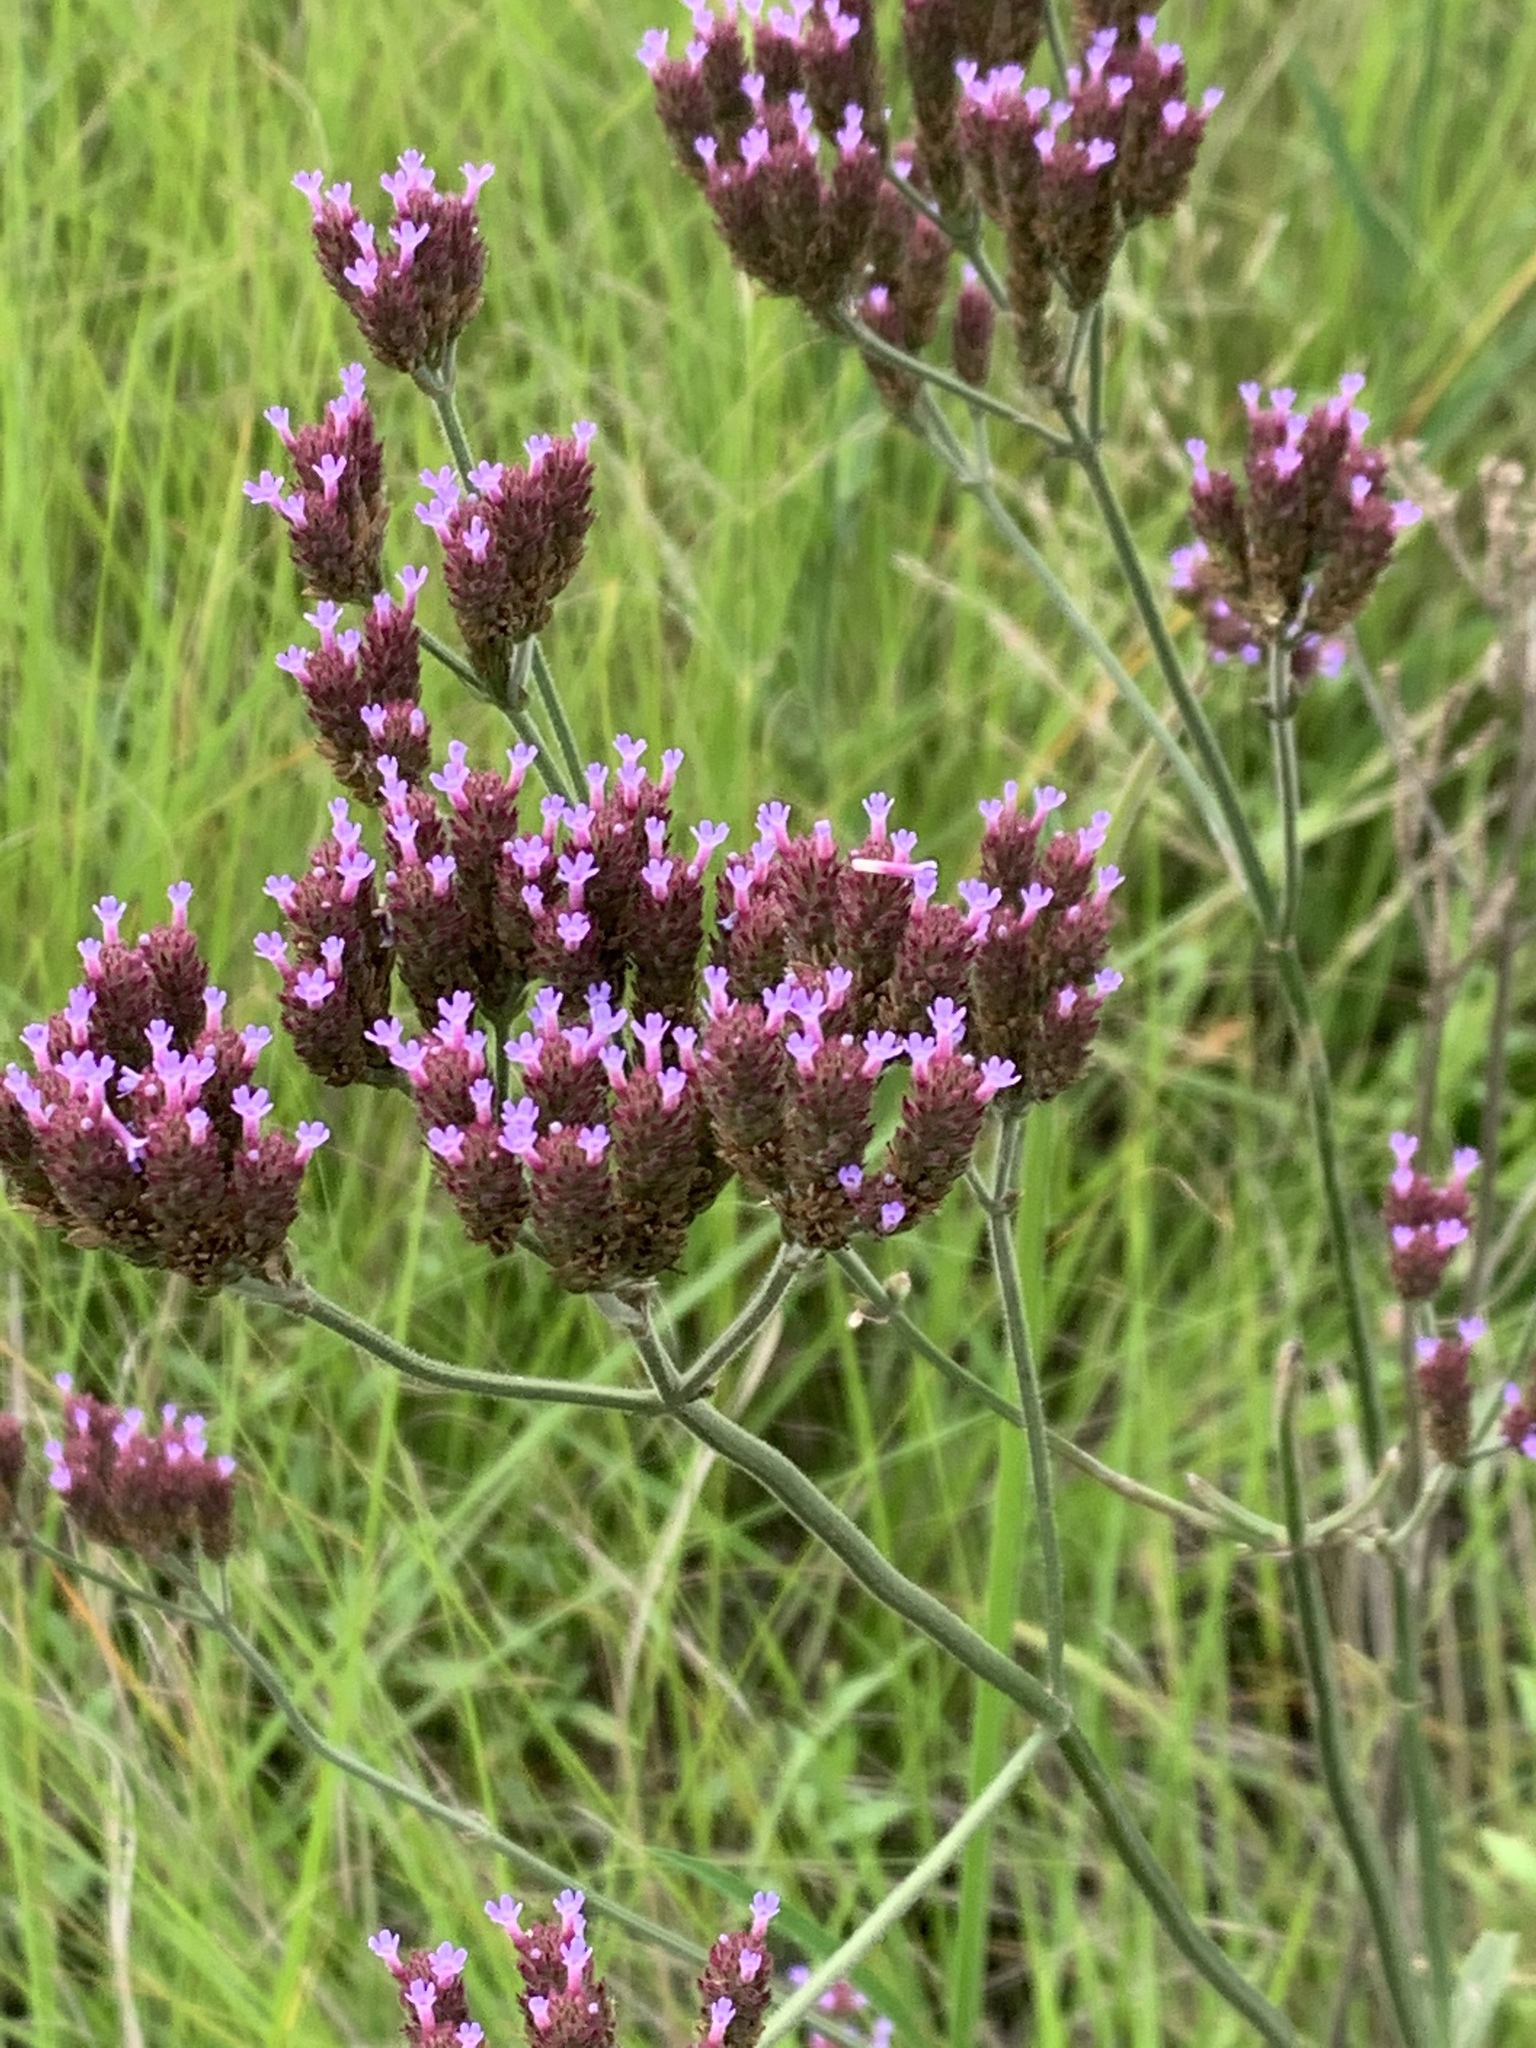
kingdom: Plantae
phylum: Tracheophyta
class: Magnoliopsida
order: Lamiales
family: Verbenaceae
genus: Verbena
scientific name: Verbena bonariensis
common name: Purpletop vervain
